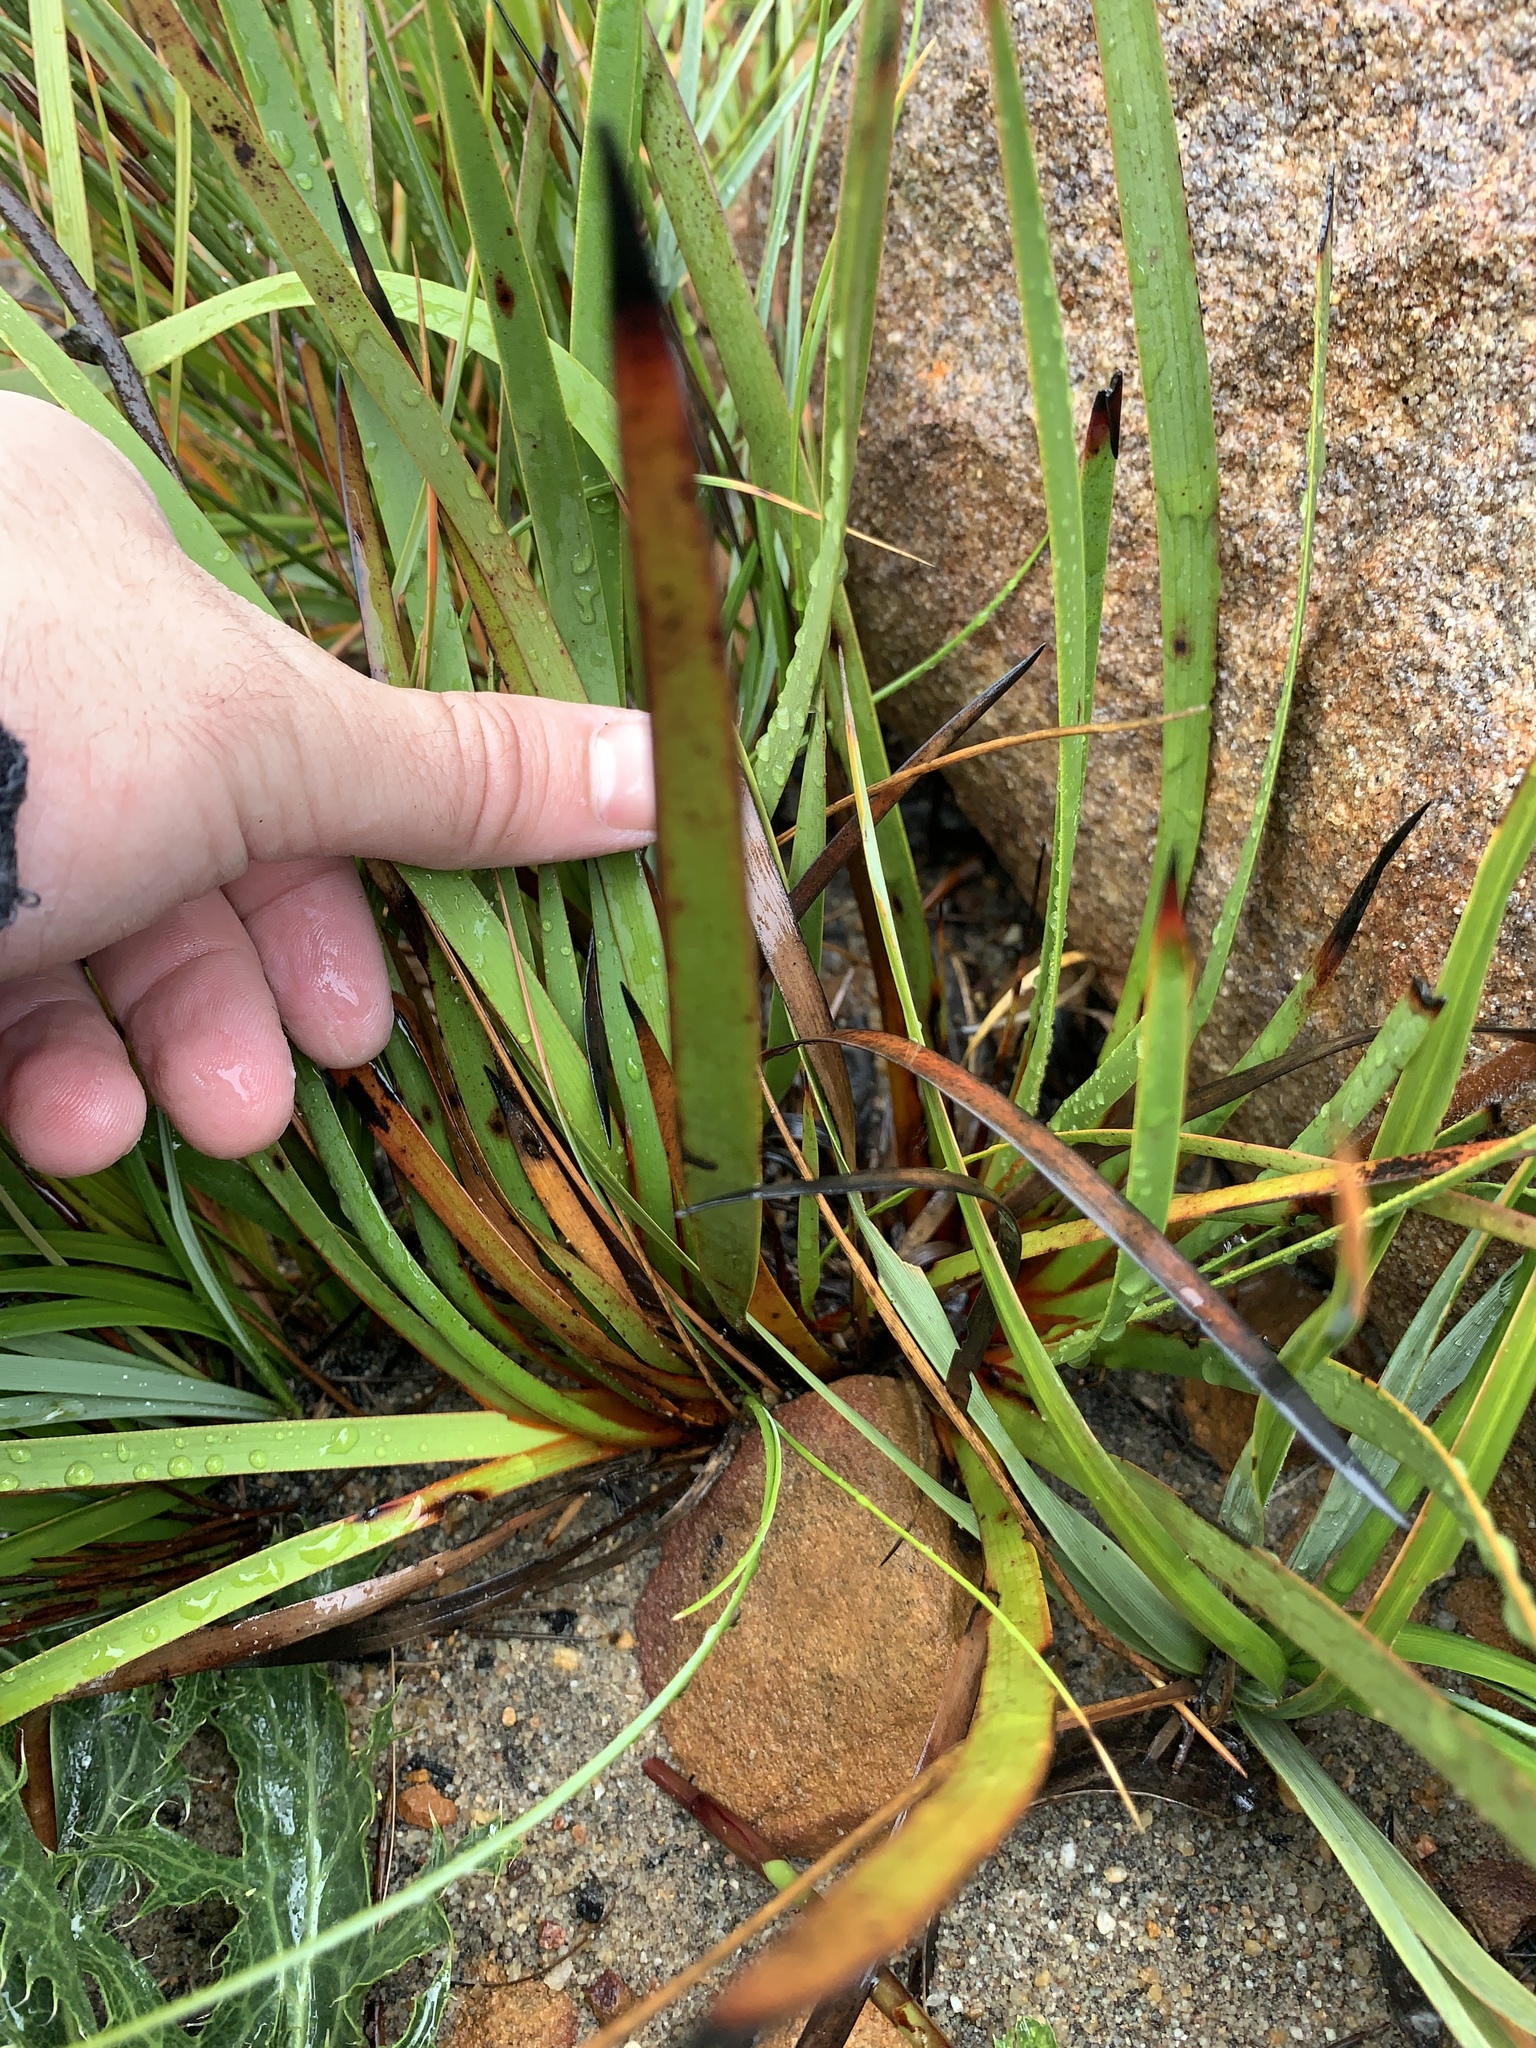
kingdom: Plantae
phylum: Tracheophyta
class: Liliopsida
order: Commelinales
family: Haemodoraceae
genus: Dilatris
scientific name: Dilatris pillansii
